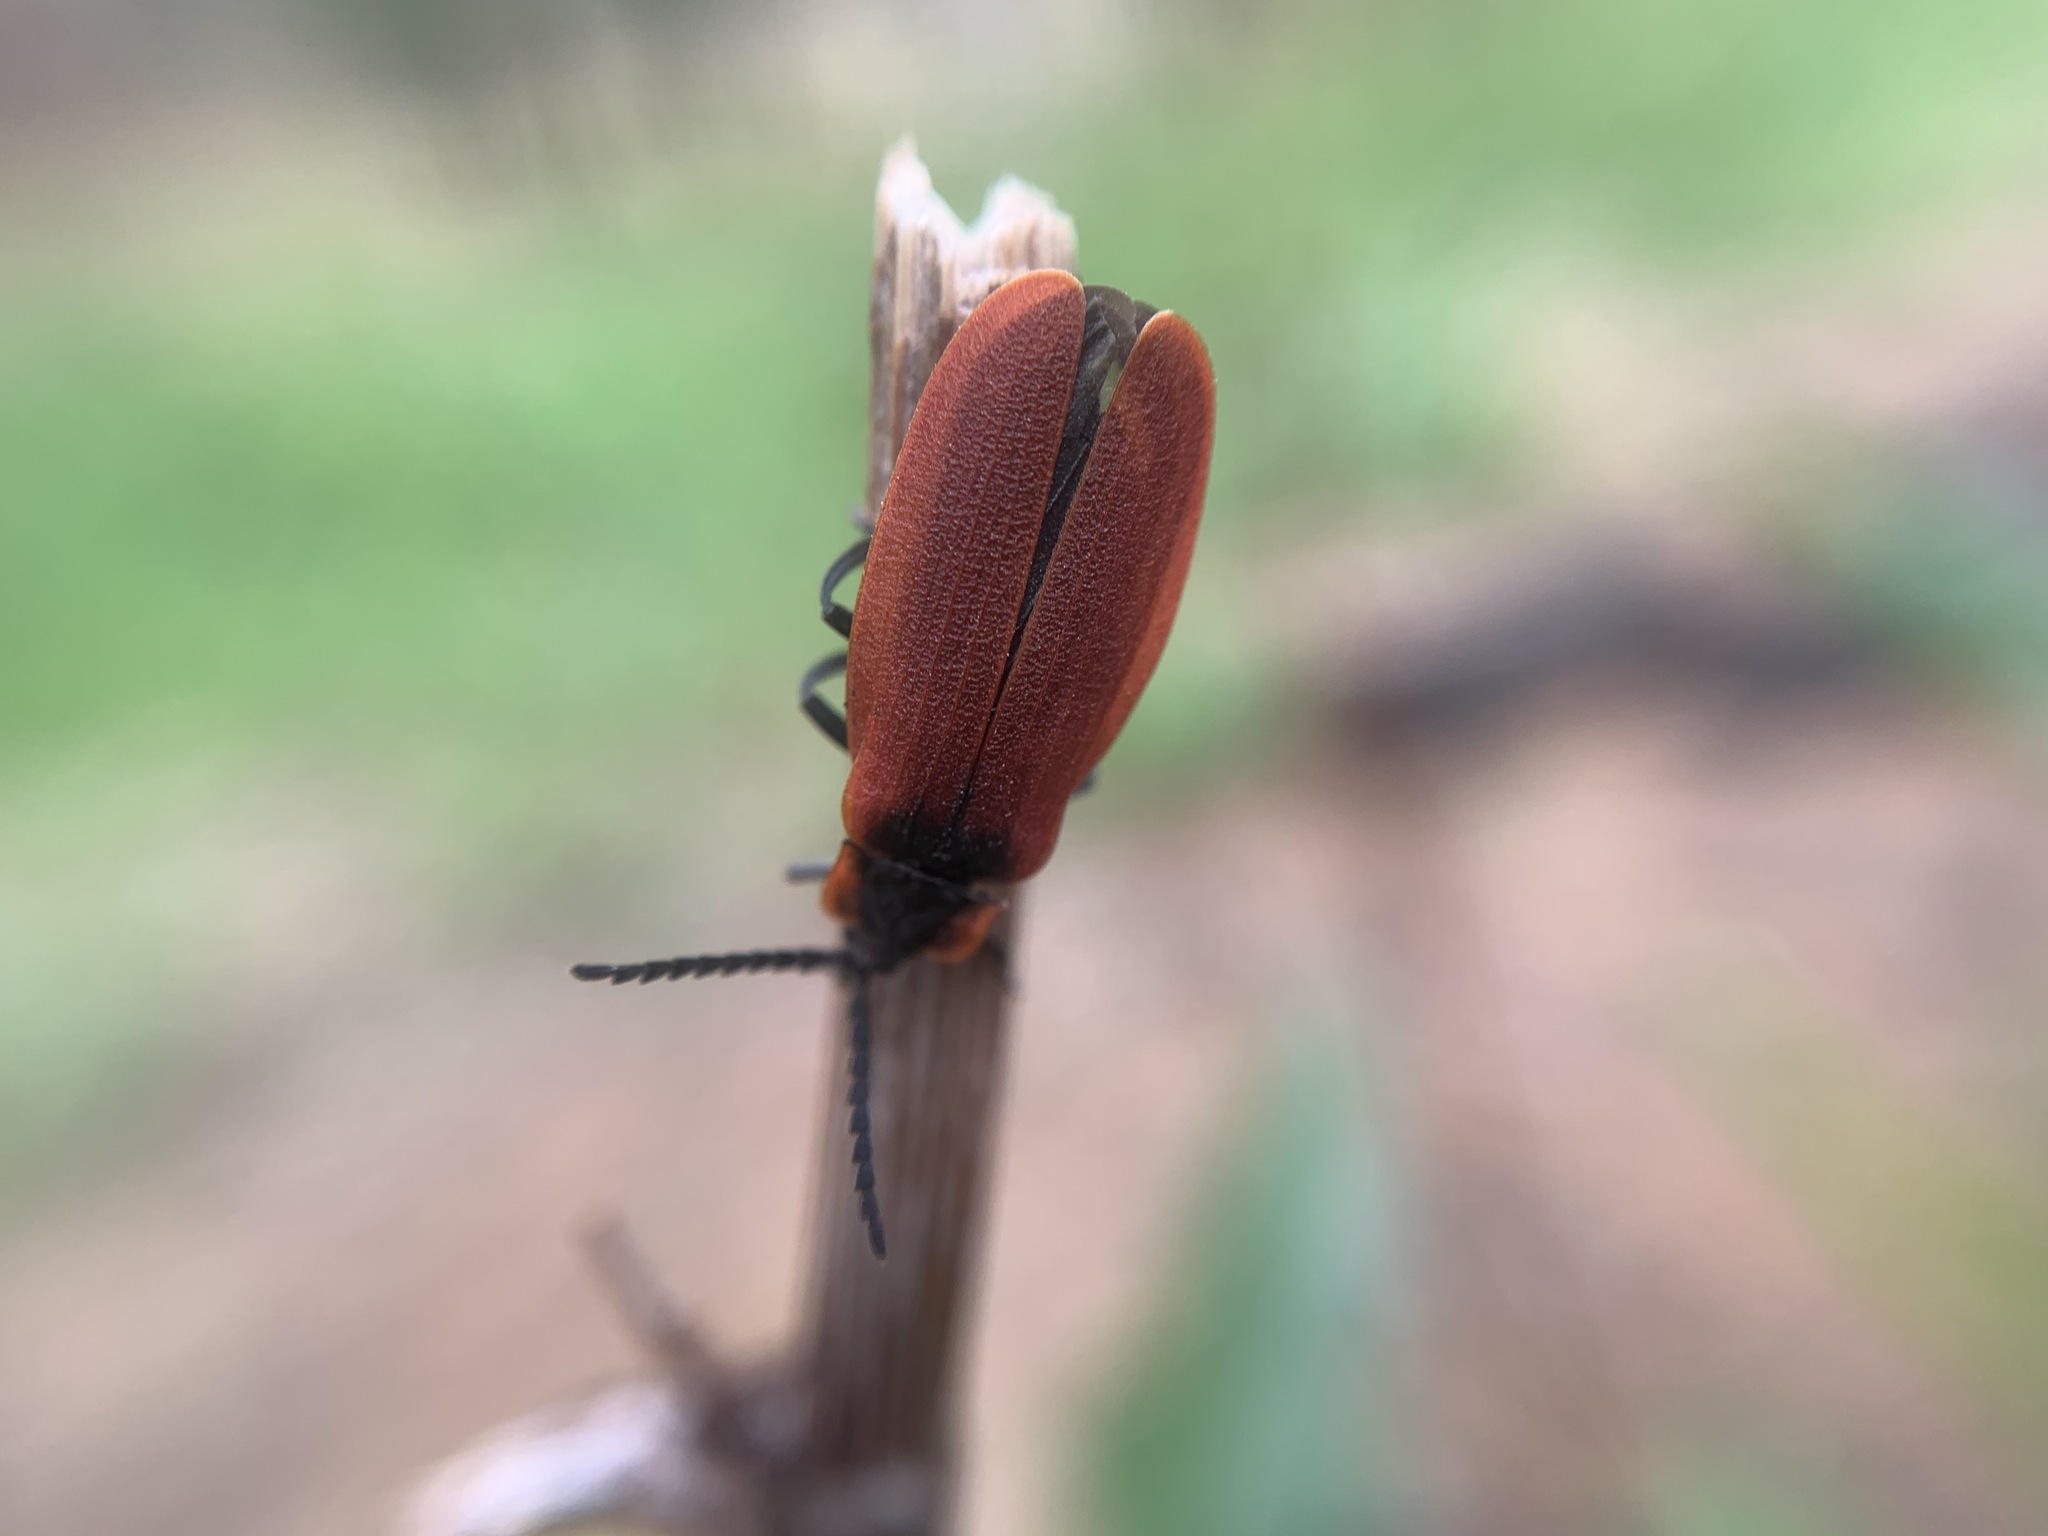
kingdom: Animalia
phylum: Arthropoda
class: Insecta
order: Coleoptera
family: Lycidae
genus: Lycus
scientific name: Lycus sanguinipennis
